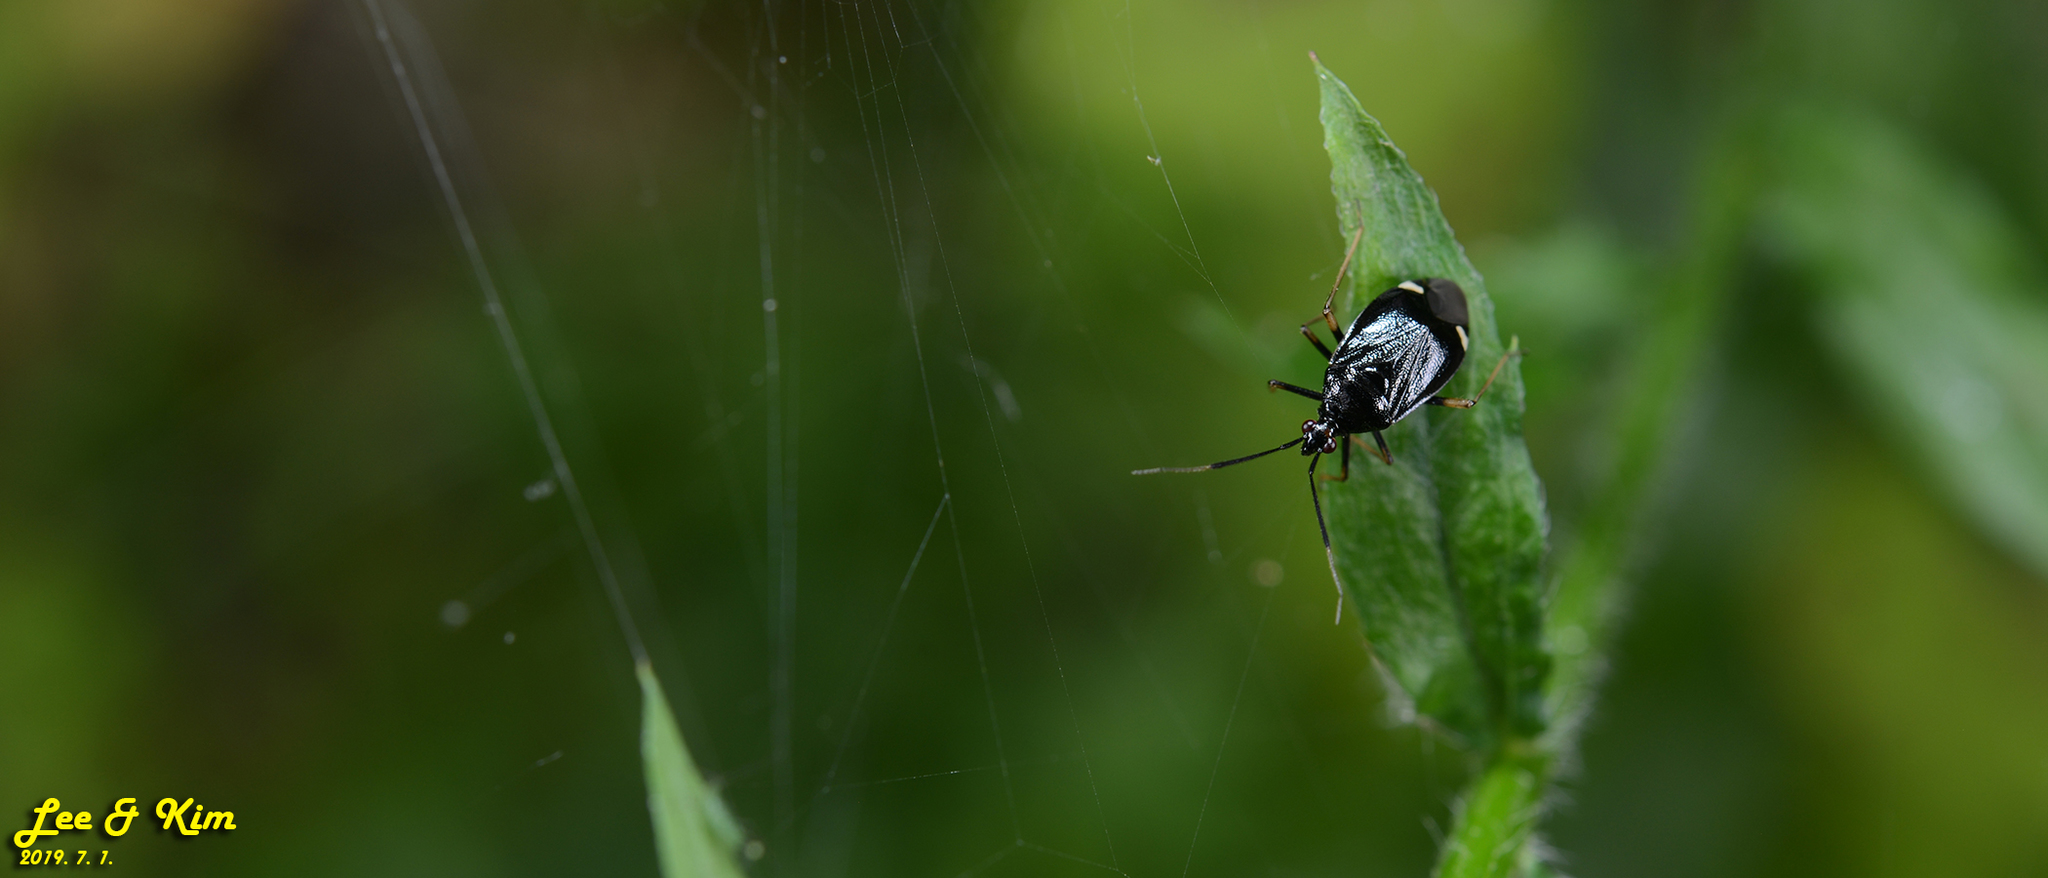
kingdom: Animalia
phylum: Arthropoda
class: Insecta
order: Hemiptera
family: Miridae
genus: Deraeocoris
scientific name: Deraeocoris ater
